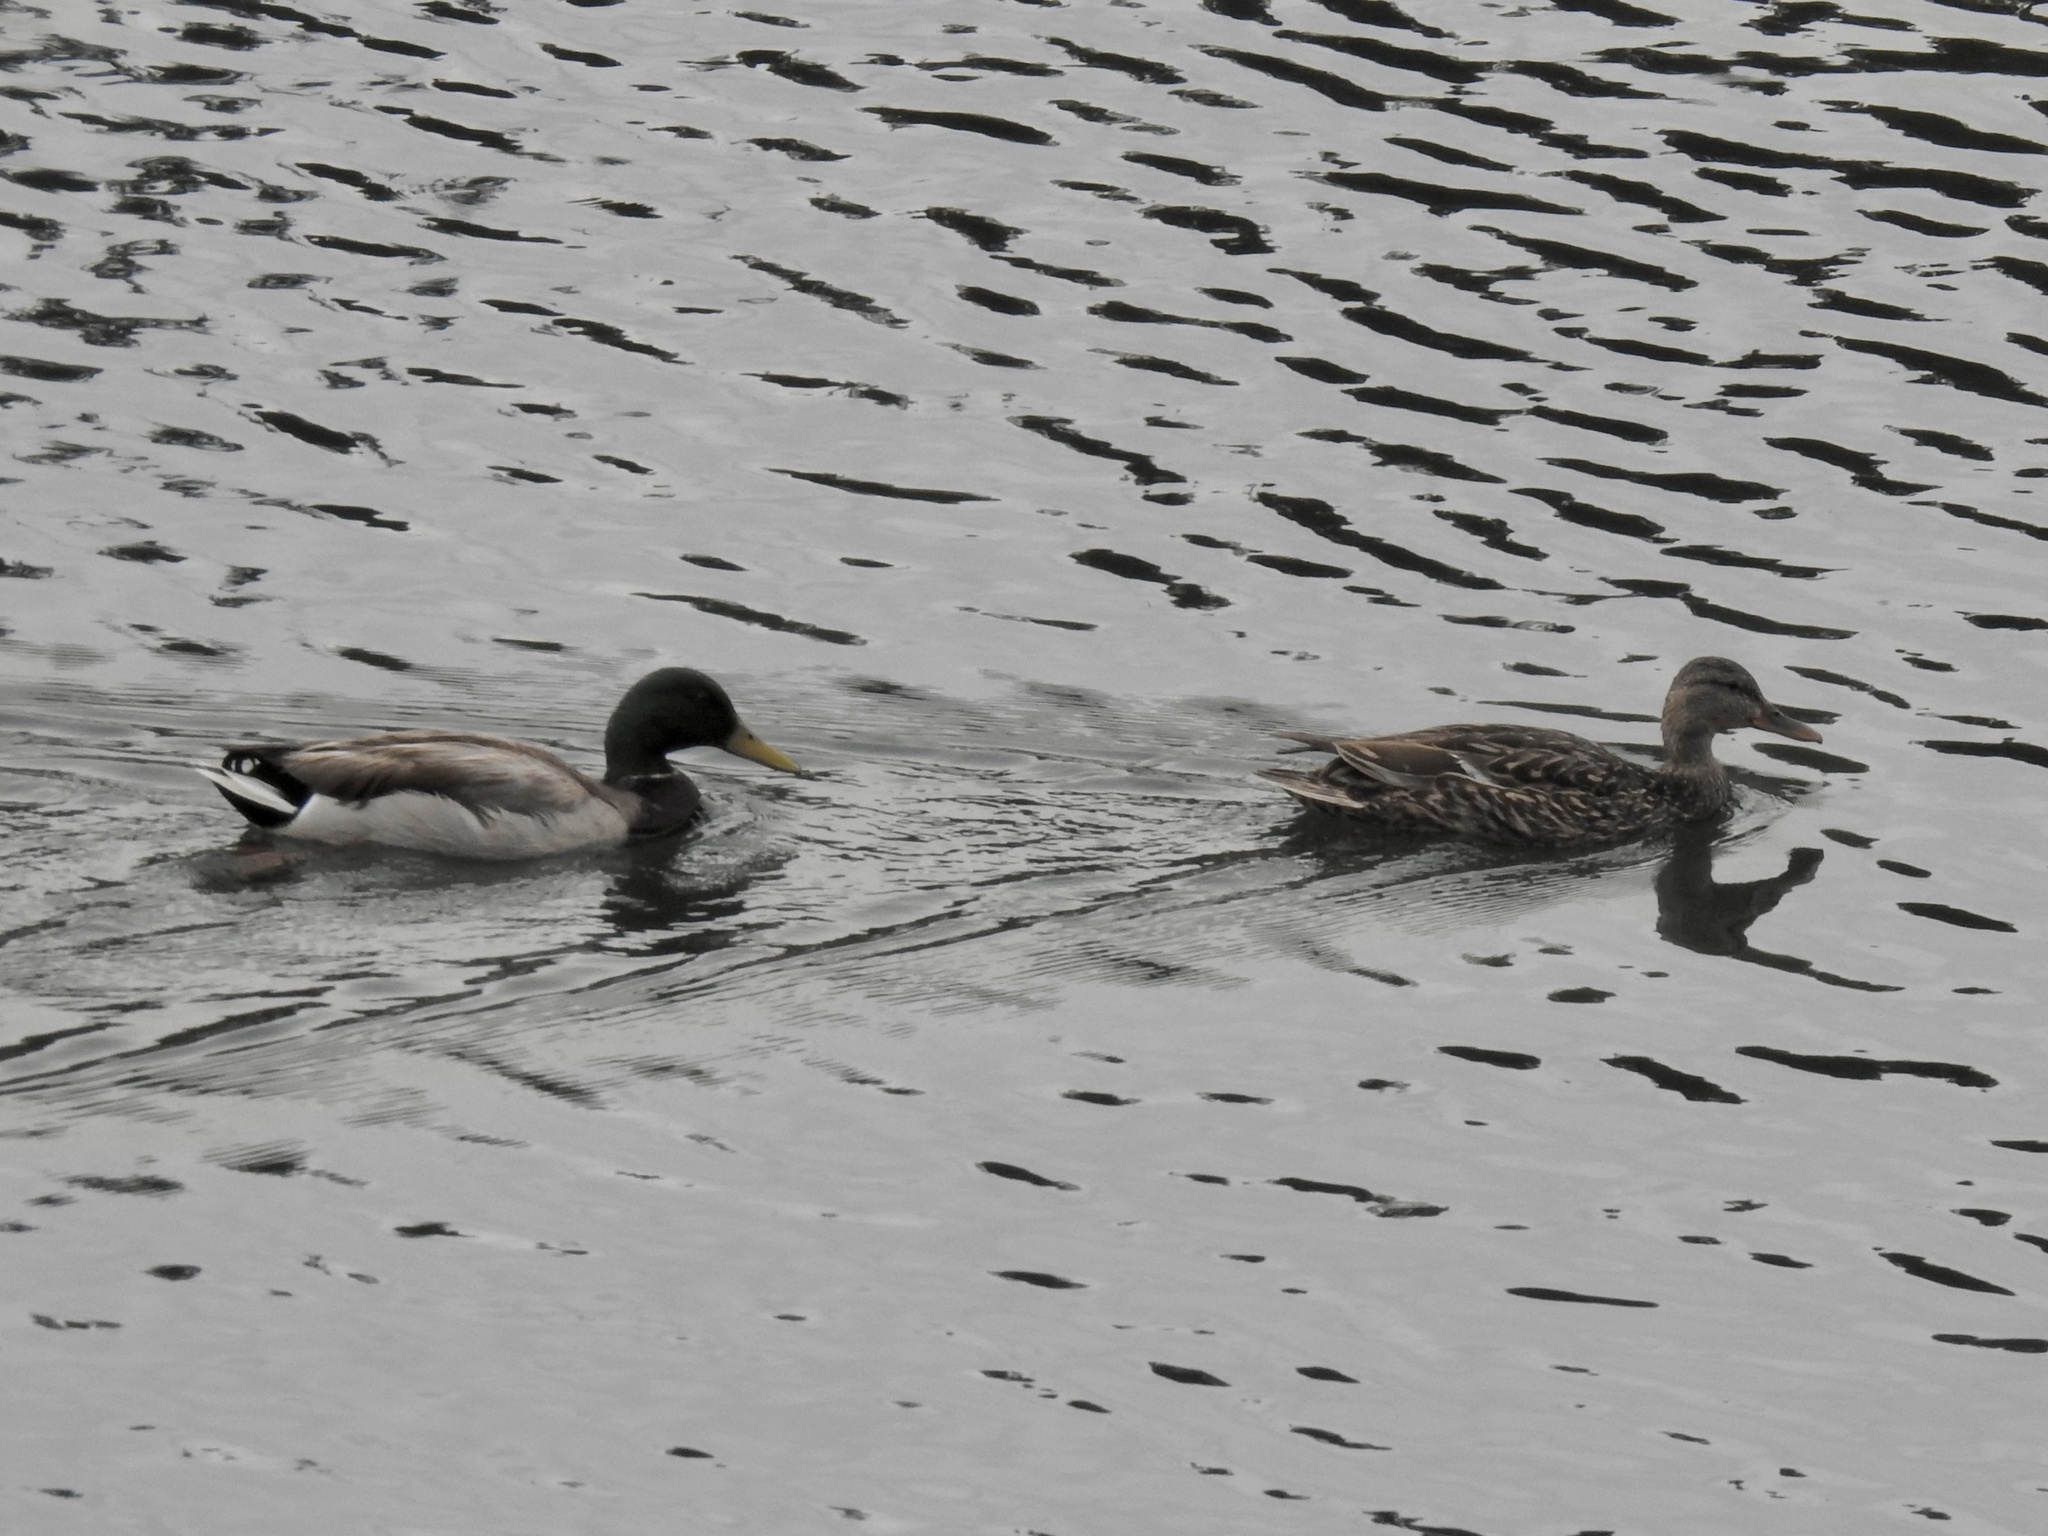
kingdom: Animalia
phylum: Chordata
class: Aves
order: Anseriformes
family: Anatidae
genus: Anas
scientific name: Anas platyrhynchos
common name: Mallard
